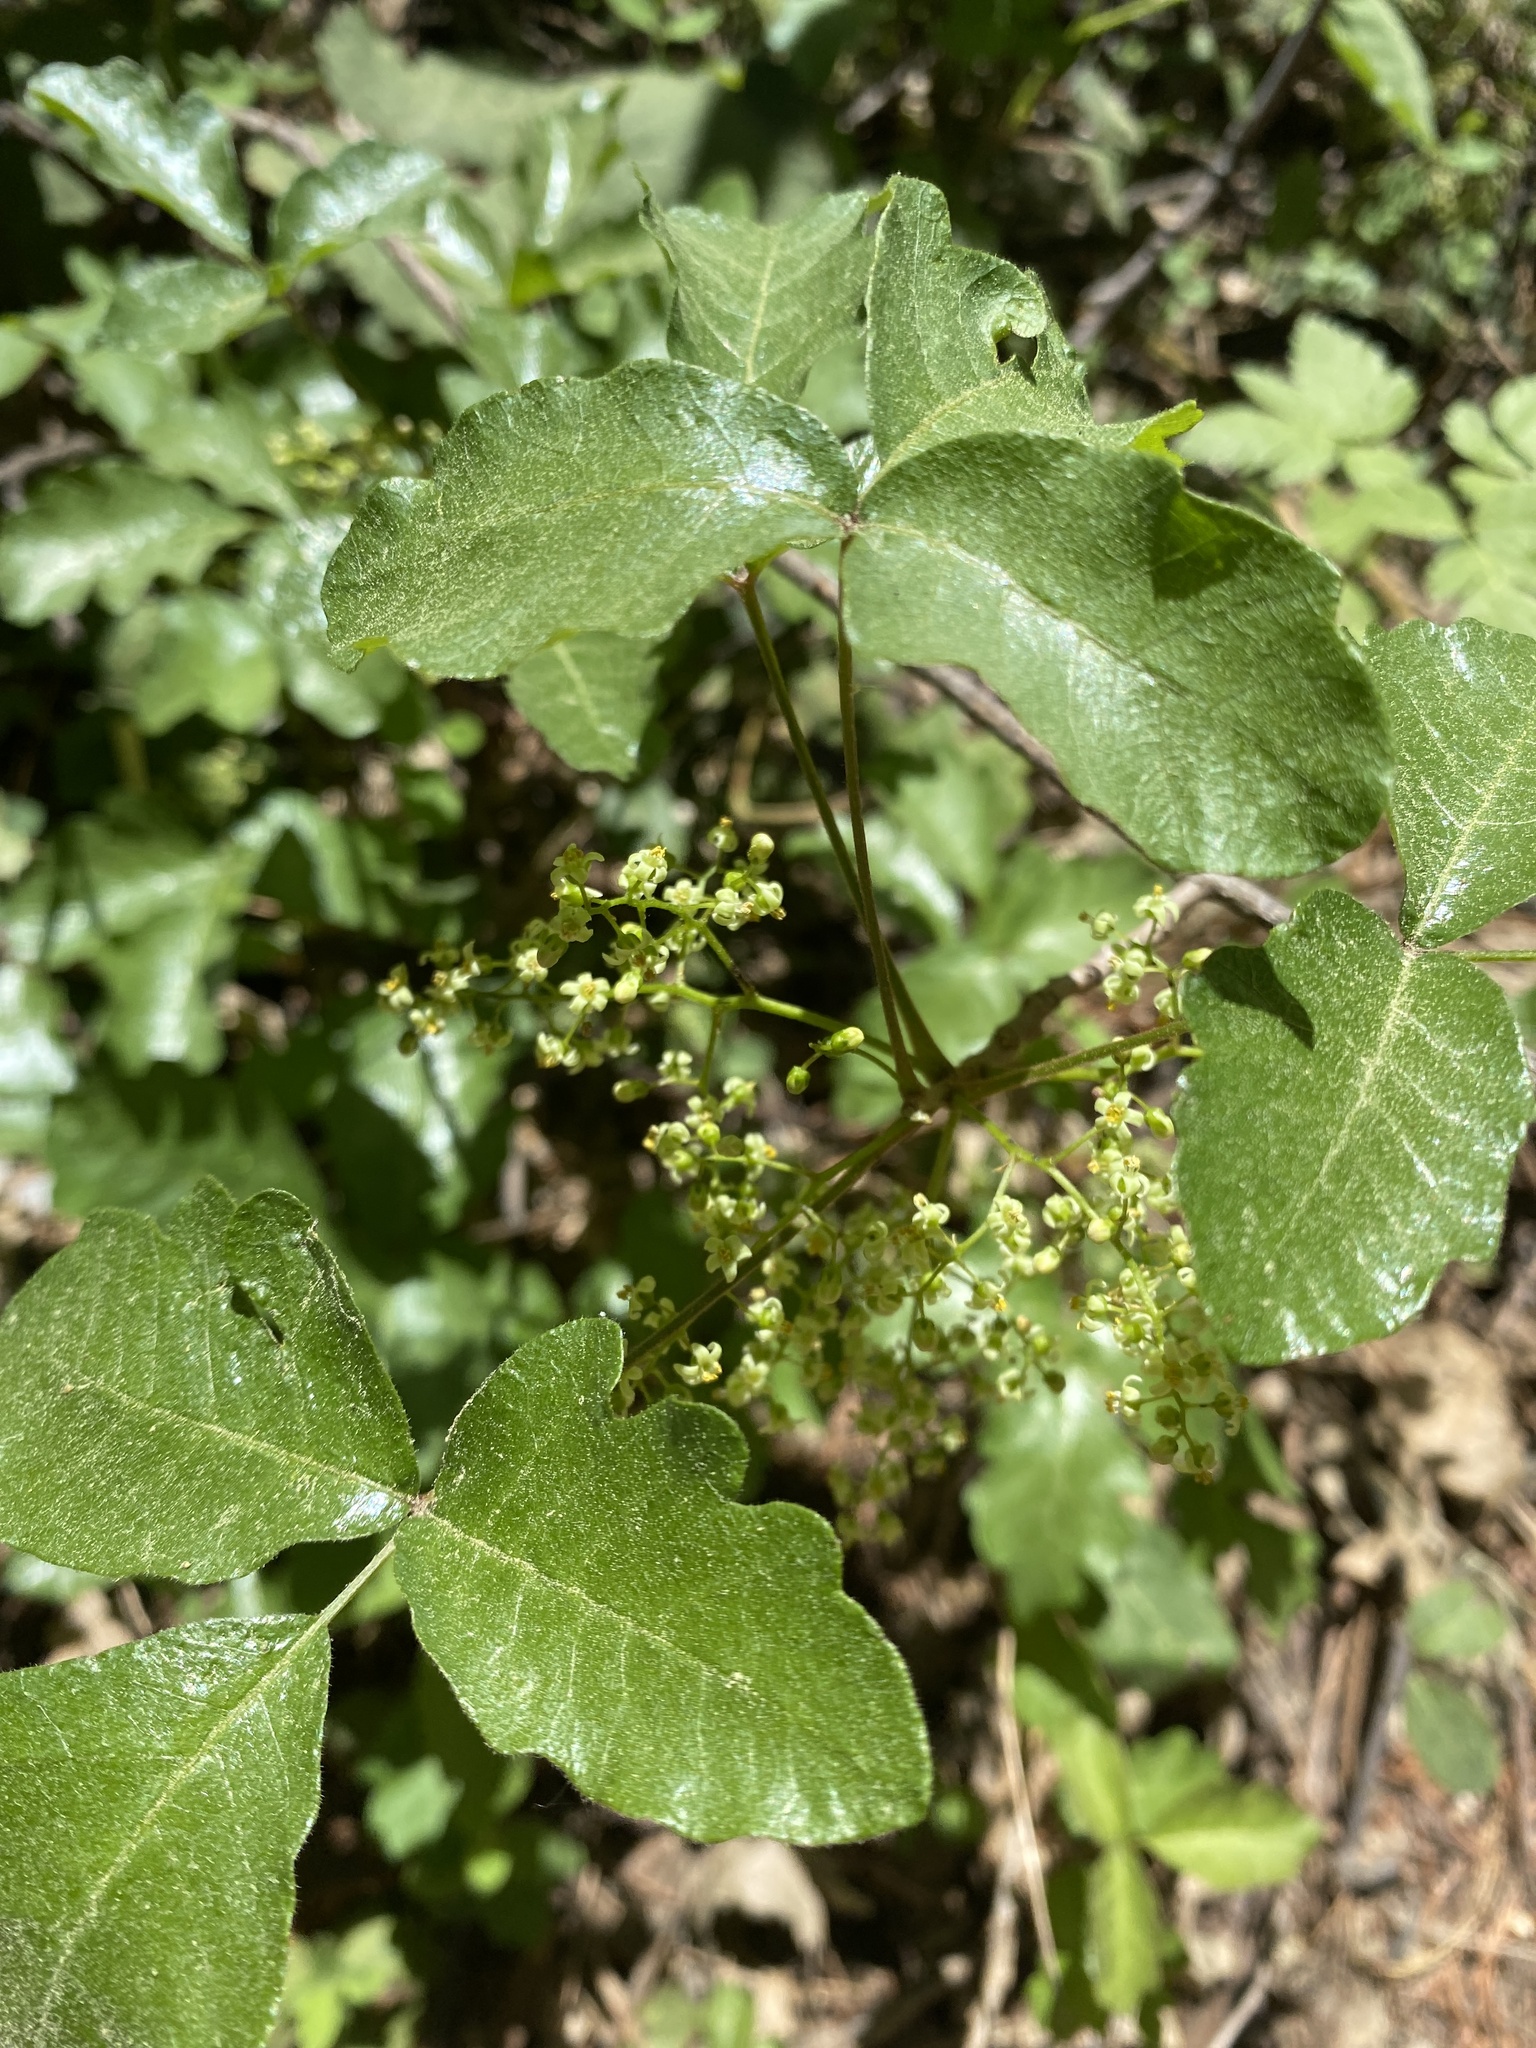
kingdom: Plantae
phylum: Tracheophyta
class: Magnoliopsida
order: Sapindales
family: Anacardiaceae
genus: Toxicodendron
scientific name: Toxicodendron diversilobum
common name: Pacific poison-oak
